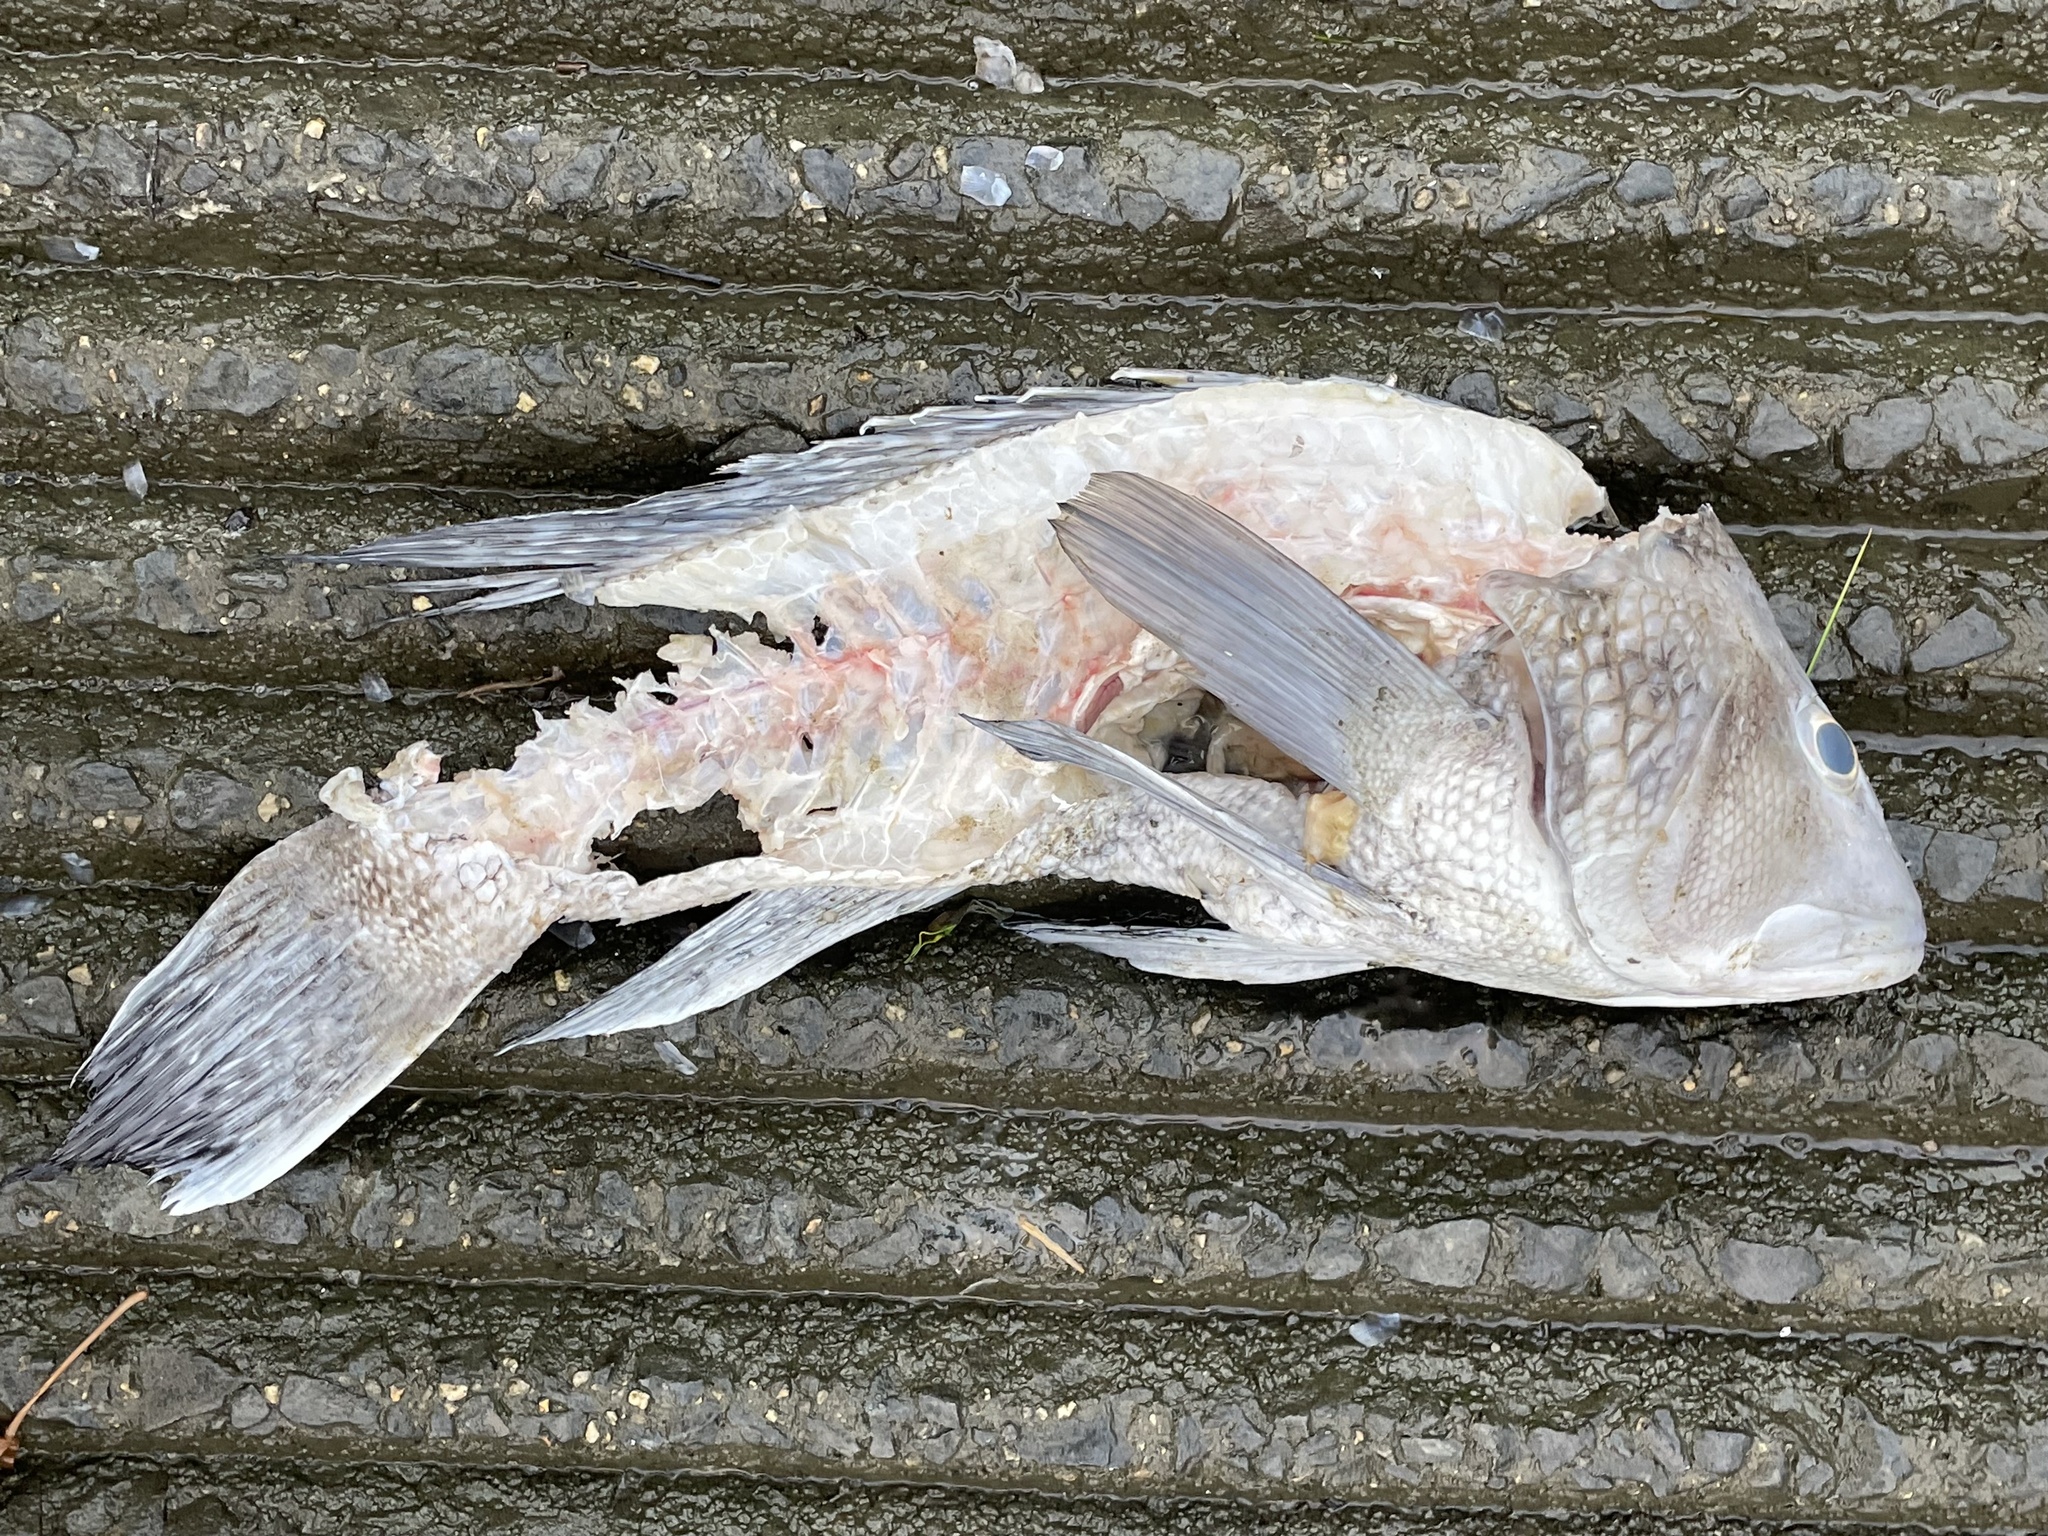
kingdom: Animalia
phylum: Chordata
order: Perciformes
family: Serranidae
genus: Centropristis
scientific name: Centropristis striata
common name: Black sea bass
